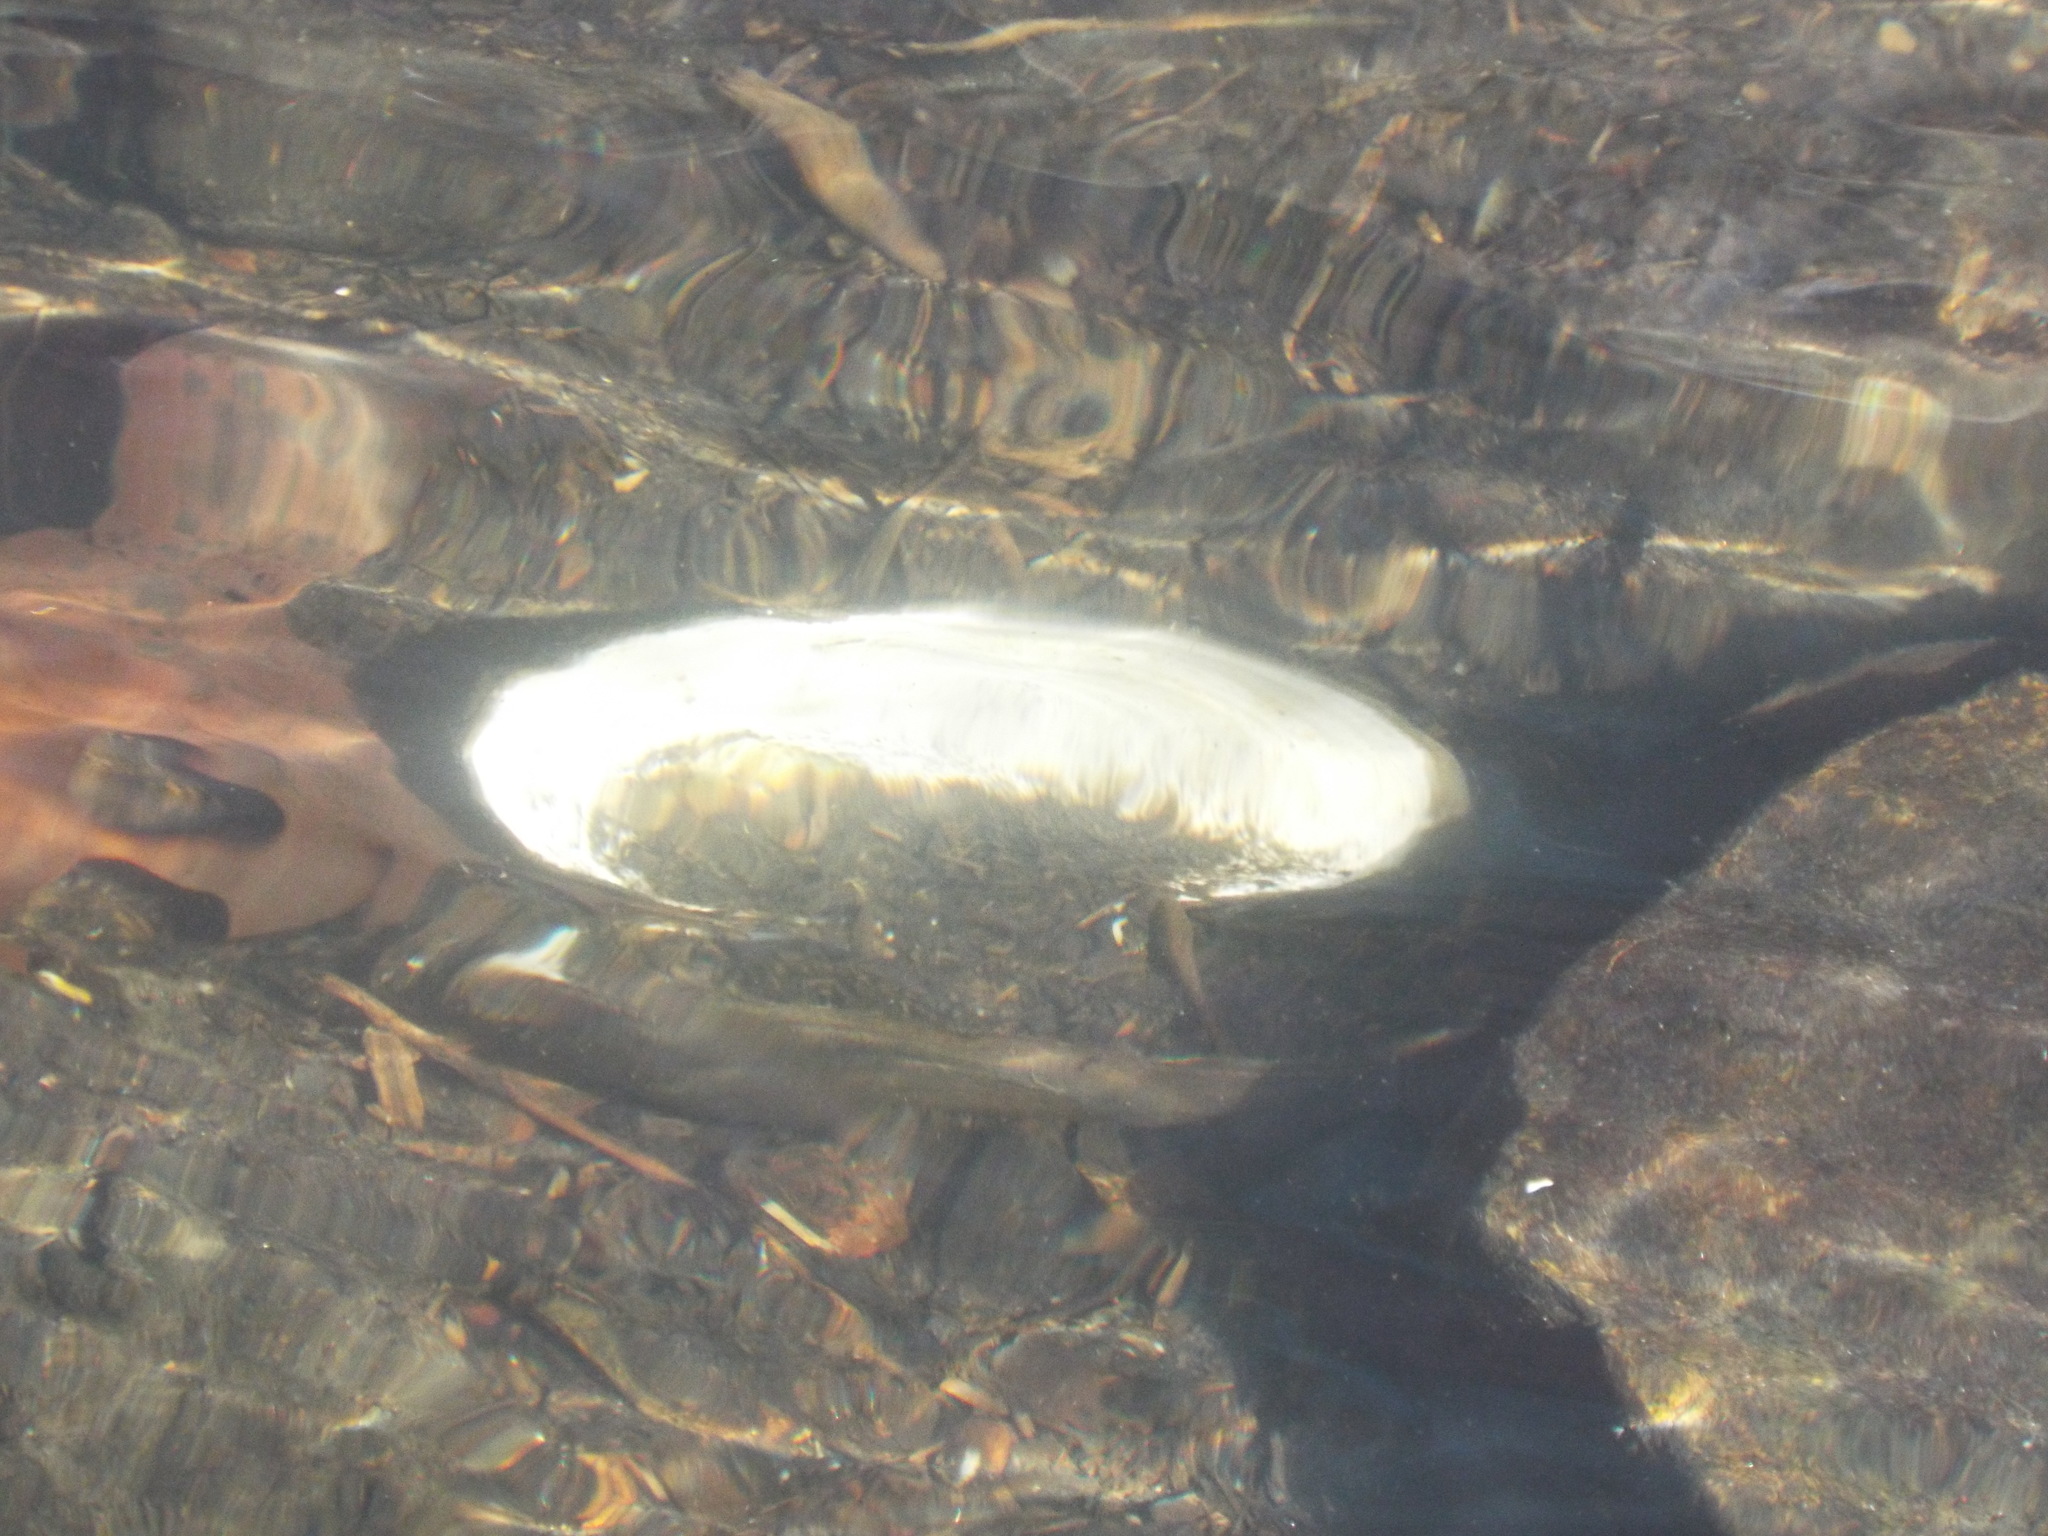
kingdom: Animalia
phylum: Mollusca
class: Bivalvia
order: Unionida
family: Unionidae
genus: Pyganodon
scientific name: Pyganodon cataracta
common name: Eastern floater
